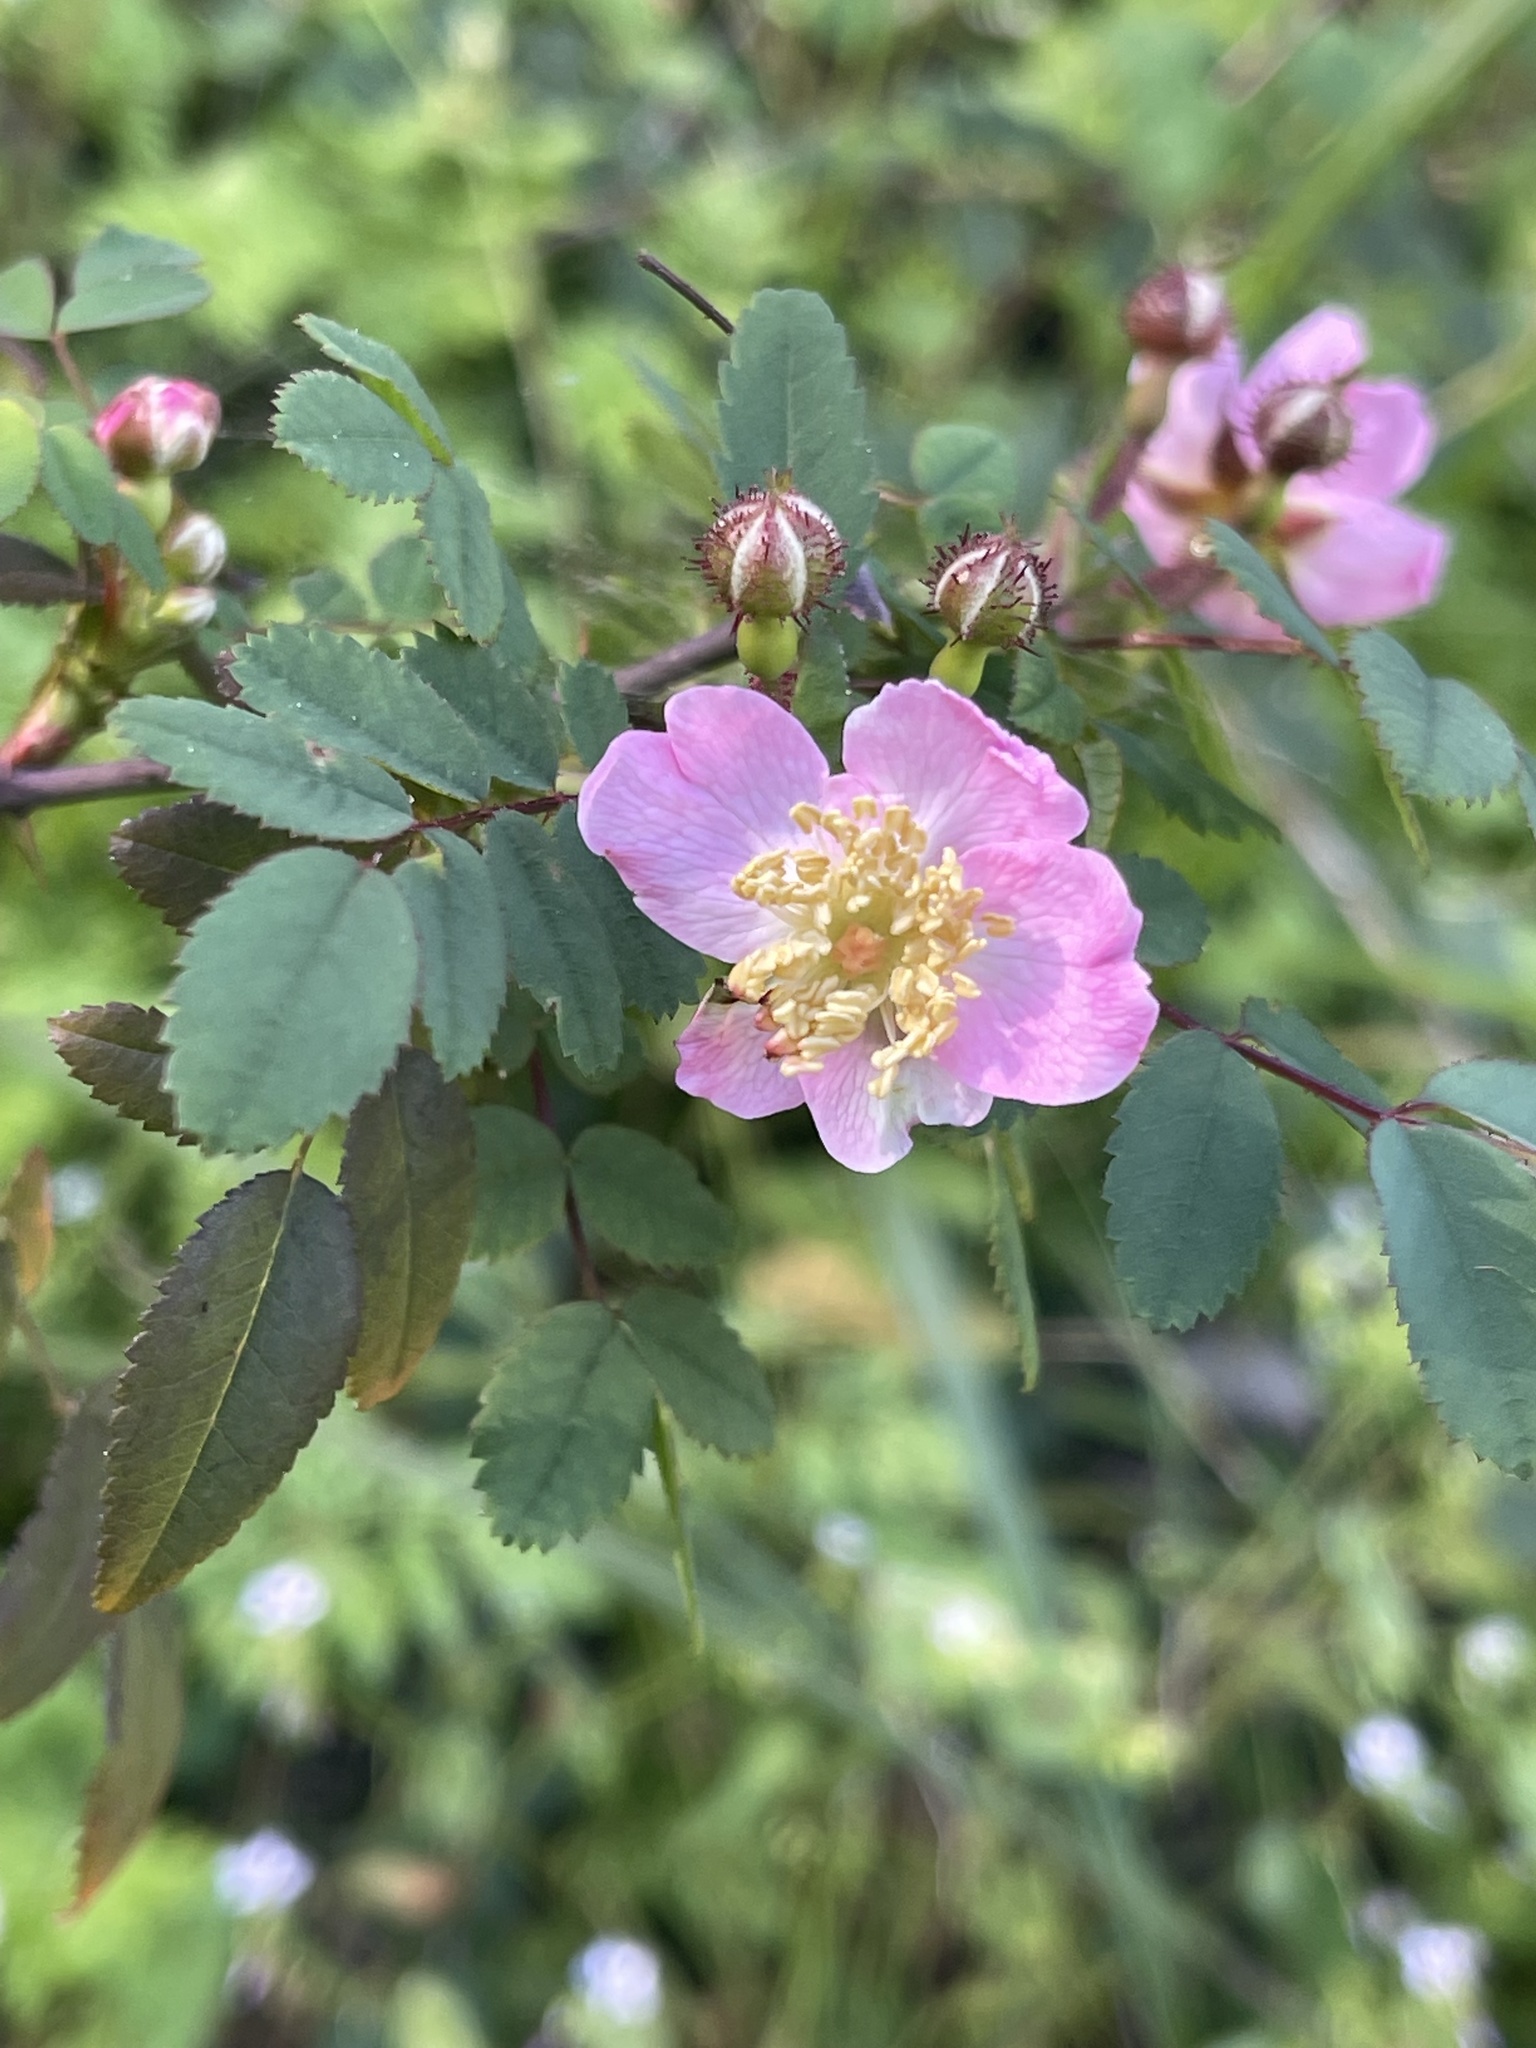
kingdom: Plantae
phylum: Tracheophyta
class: Magnoliopsida
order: Rosales
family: Rosaceae
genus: Rosa
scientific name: Rosa californica
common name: California rose
